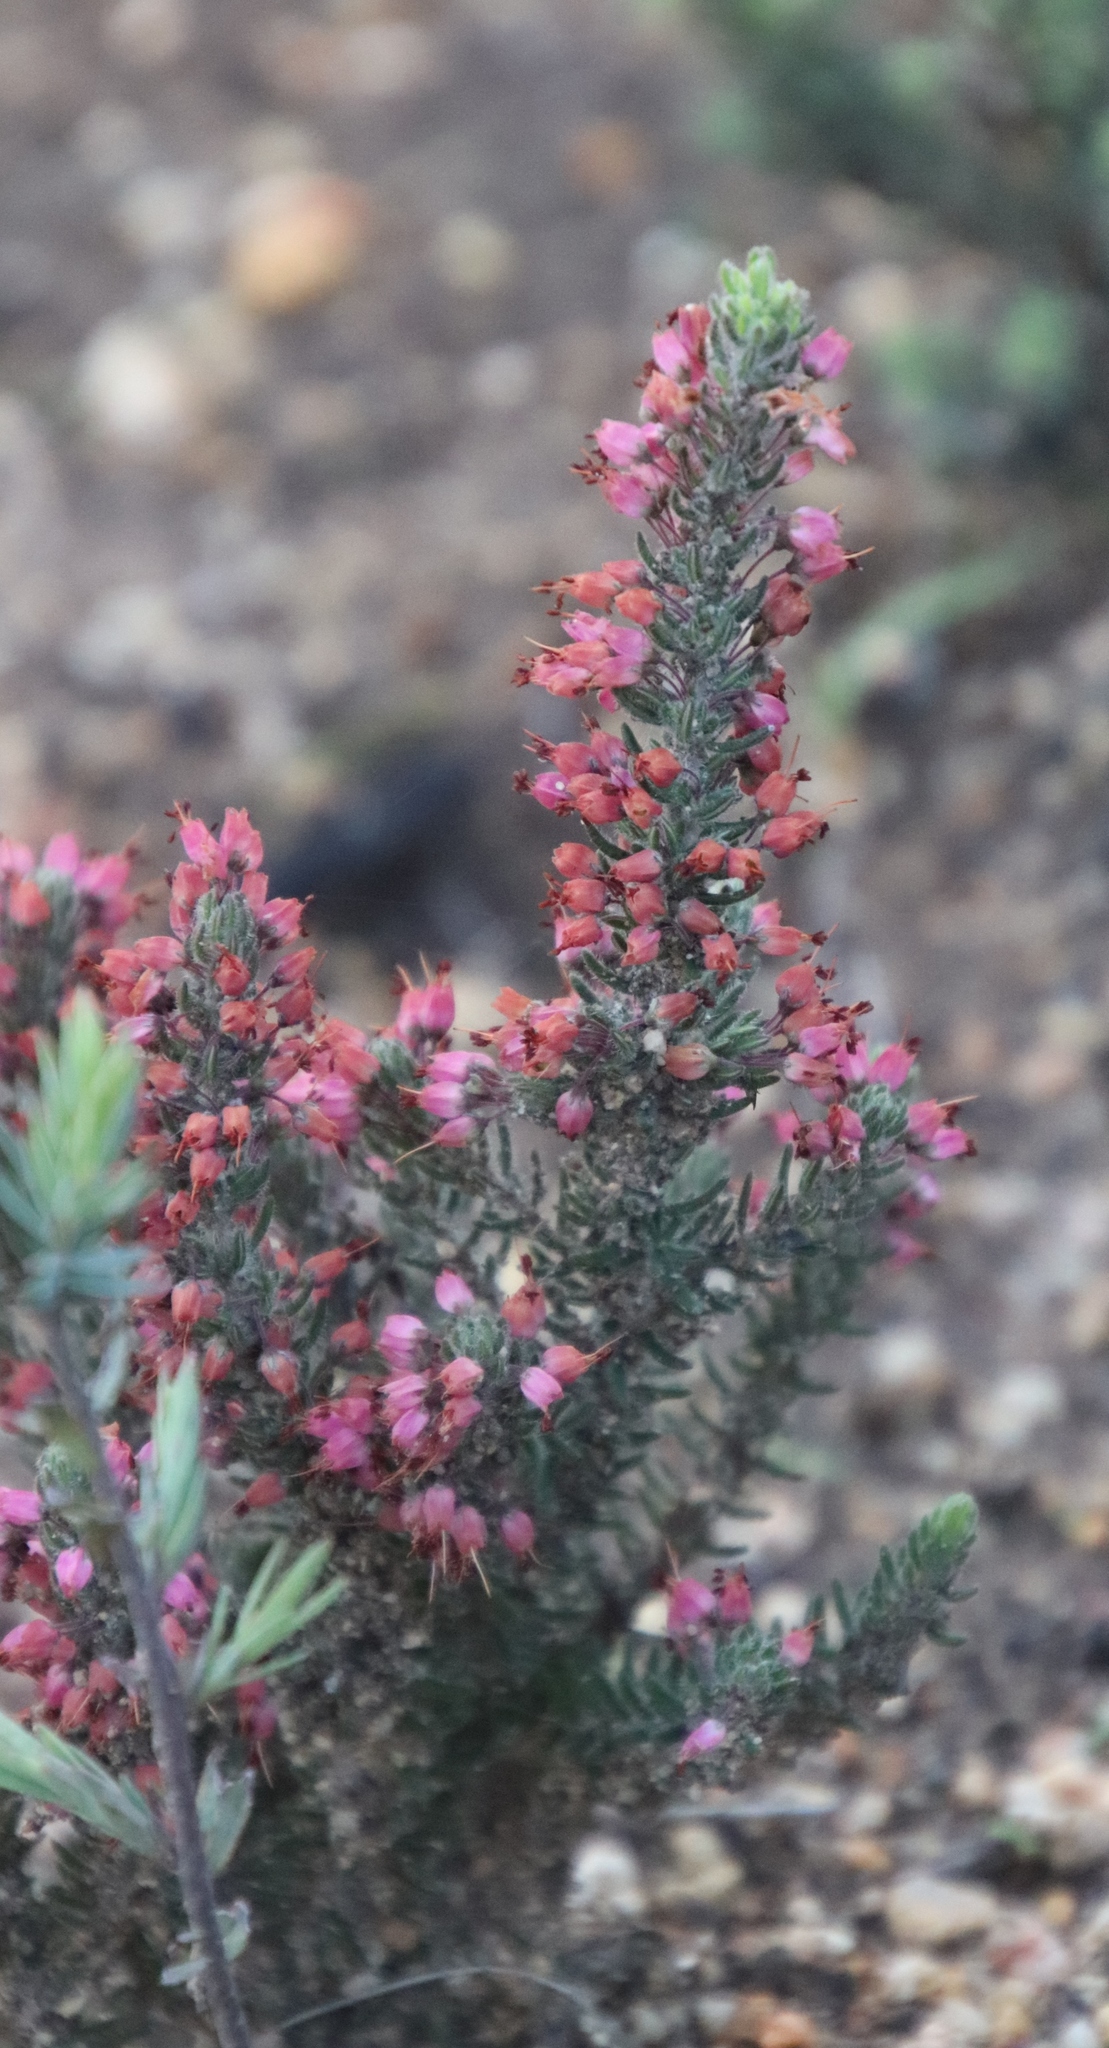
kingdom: Plantae
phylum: Tracheophyta
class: Magnoliopsida
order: Ericales
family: Ericaceae
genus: Erica
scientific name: Erica nudiflora
